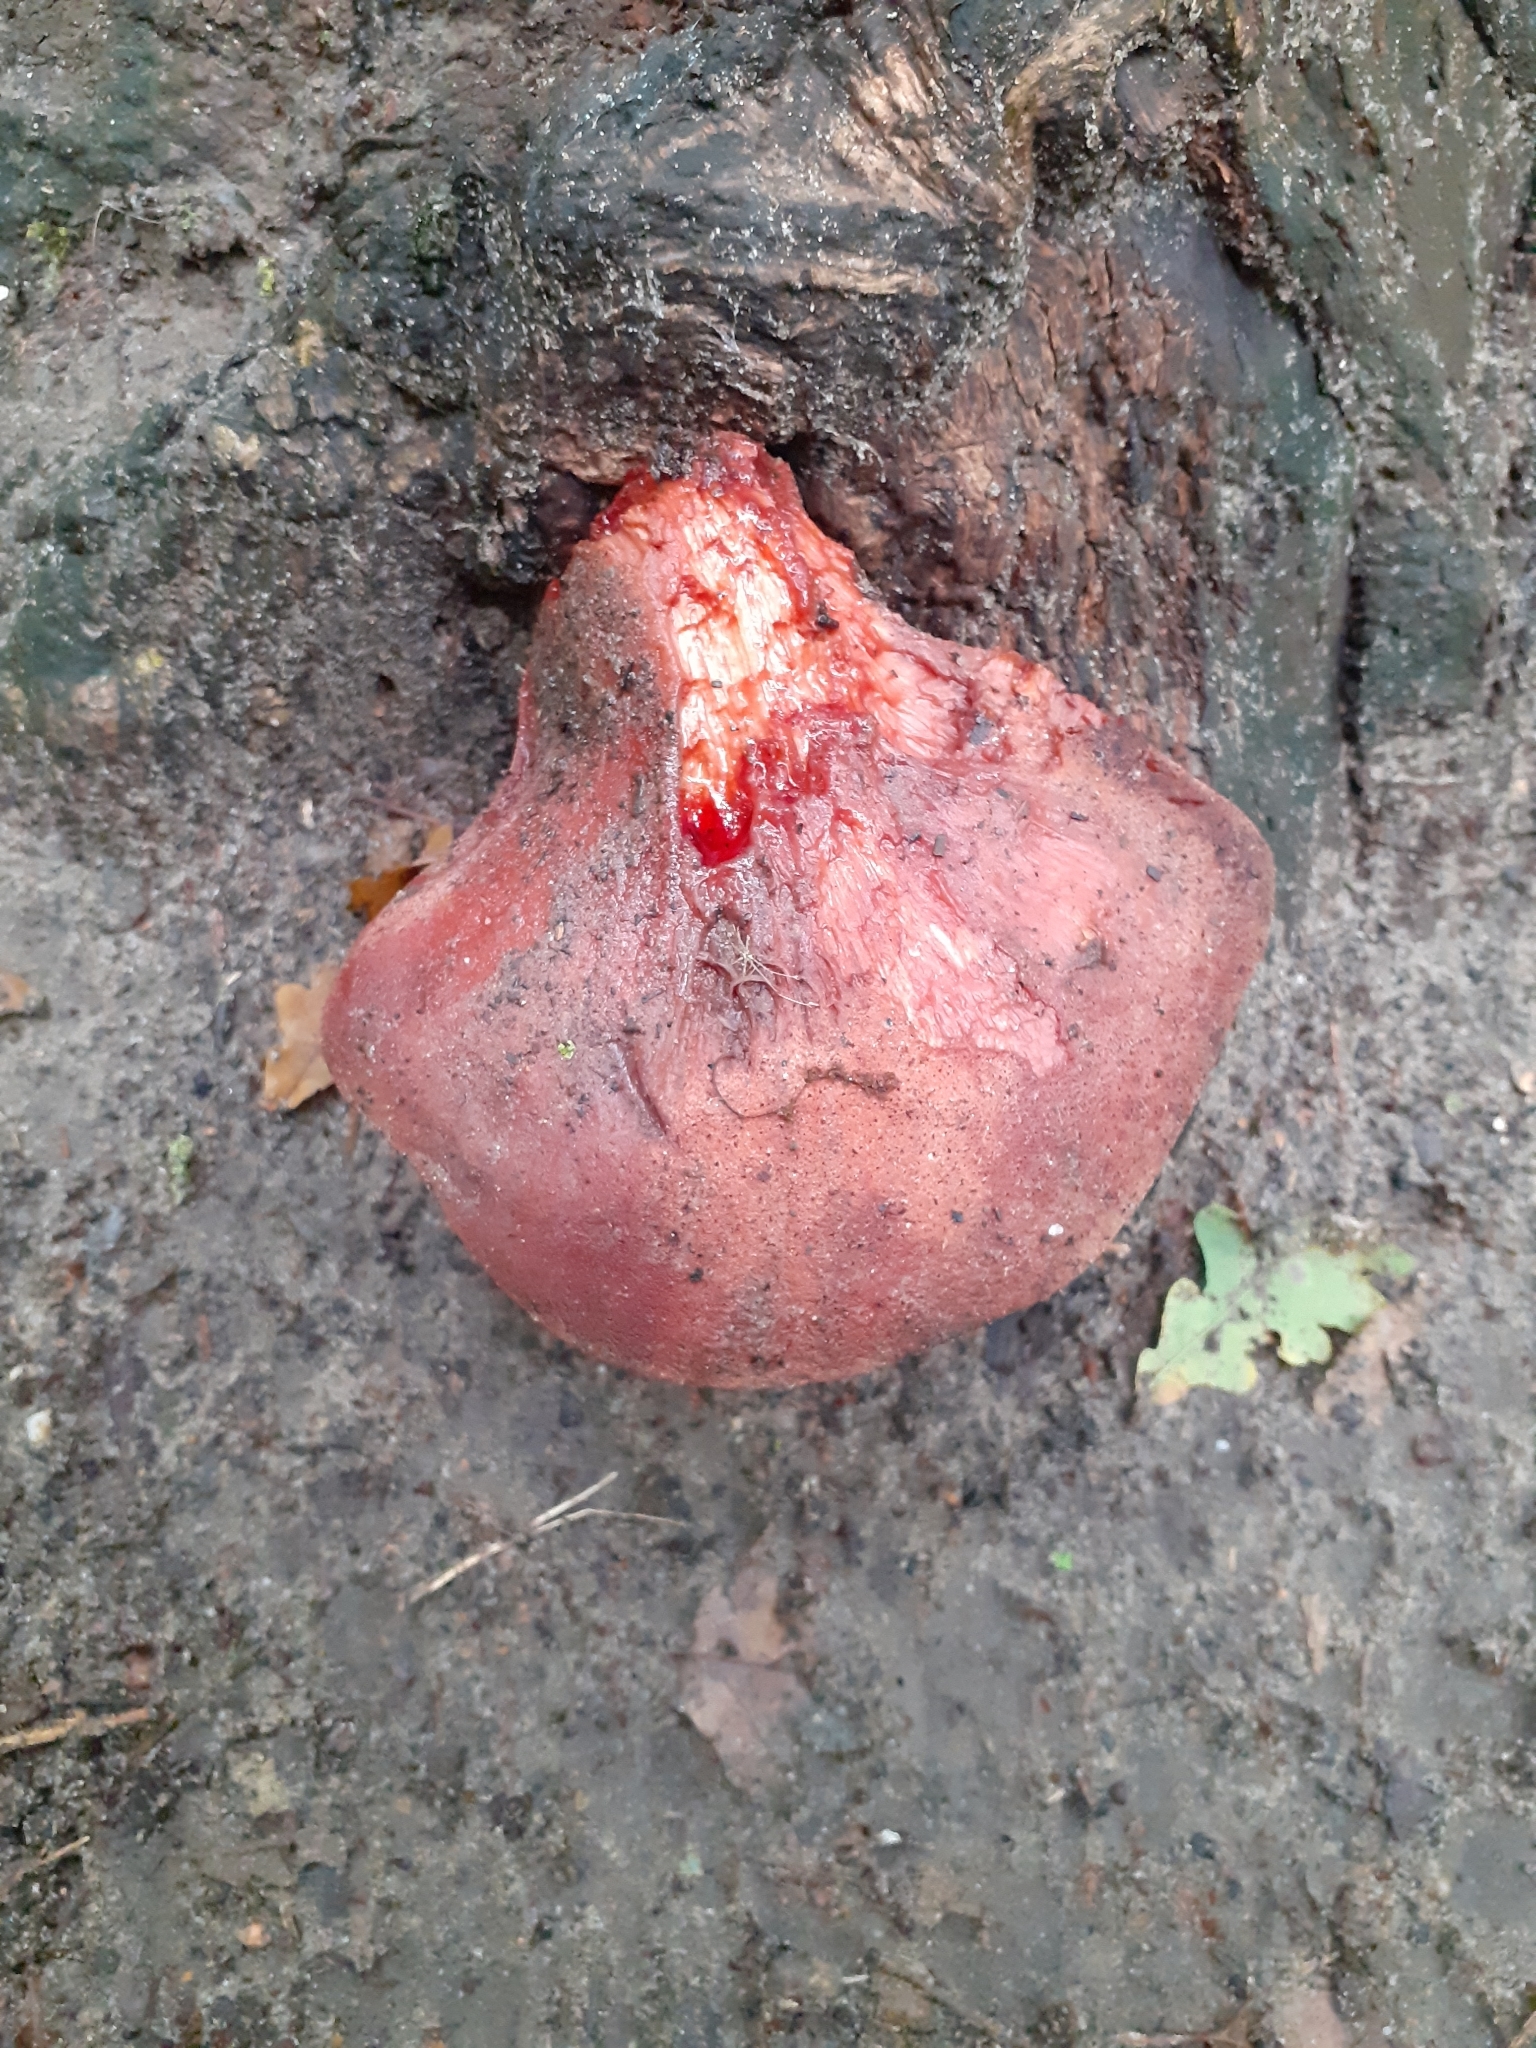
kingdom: Fungi
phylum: Basidiomycota
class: Agaricomycetes
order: Agaricales
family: Fistulinaceae
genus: Fistulina
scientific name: Fistulina hepatica
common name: Beef-steak fungus
